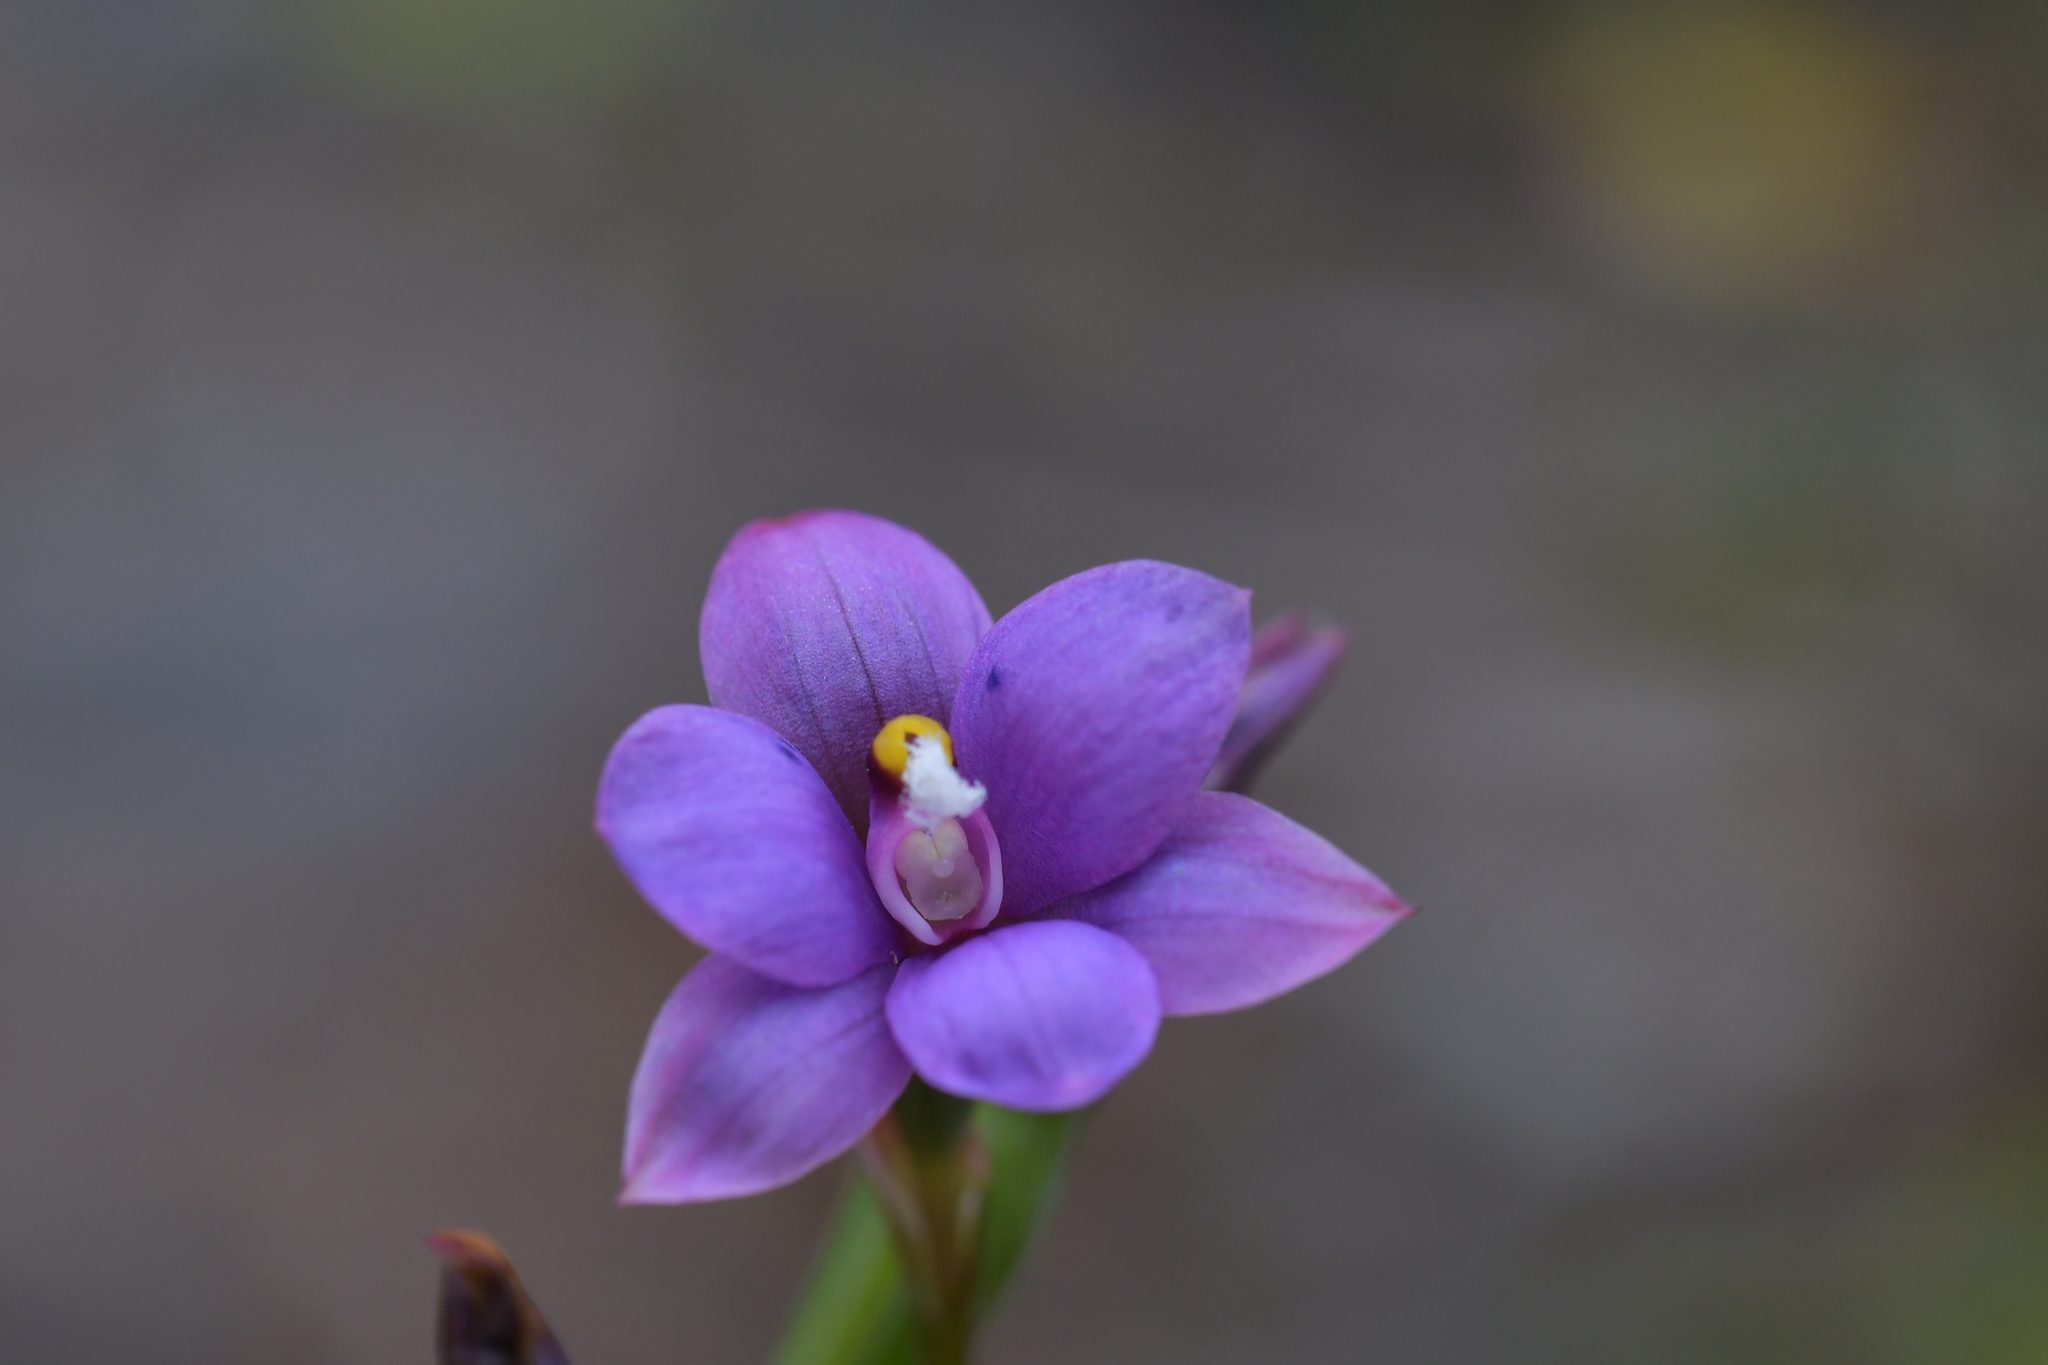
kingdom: Plantae
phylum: Tracheophyta
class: Liliopsida
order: Asparagales
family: Orchidaceae
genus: Thelymitra
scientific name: Thelymitra nervosa
